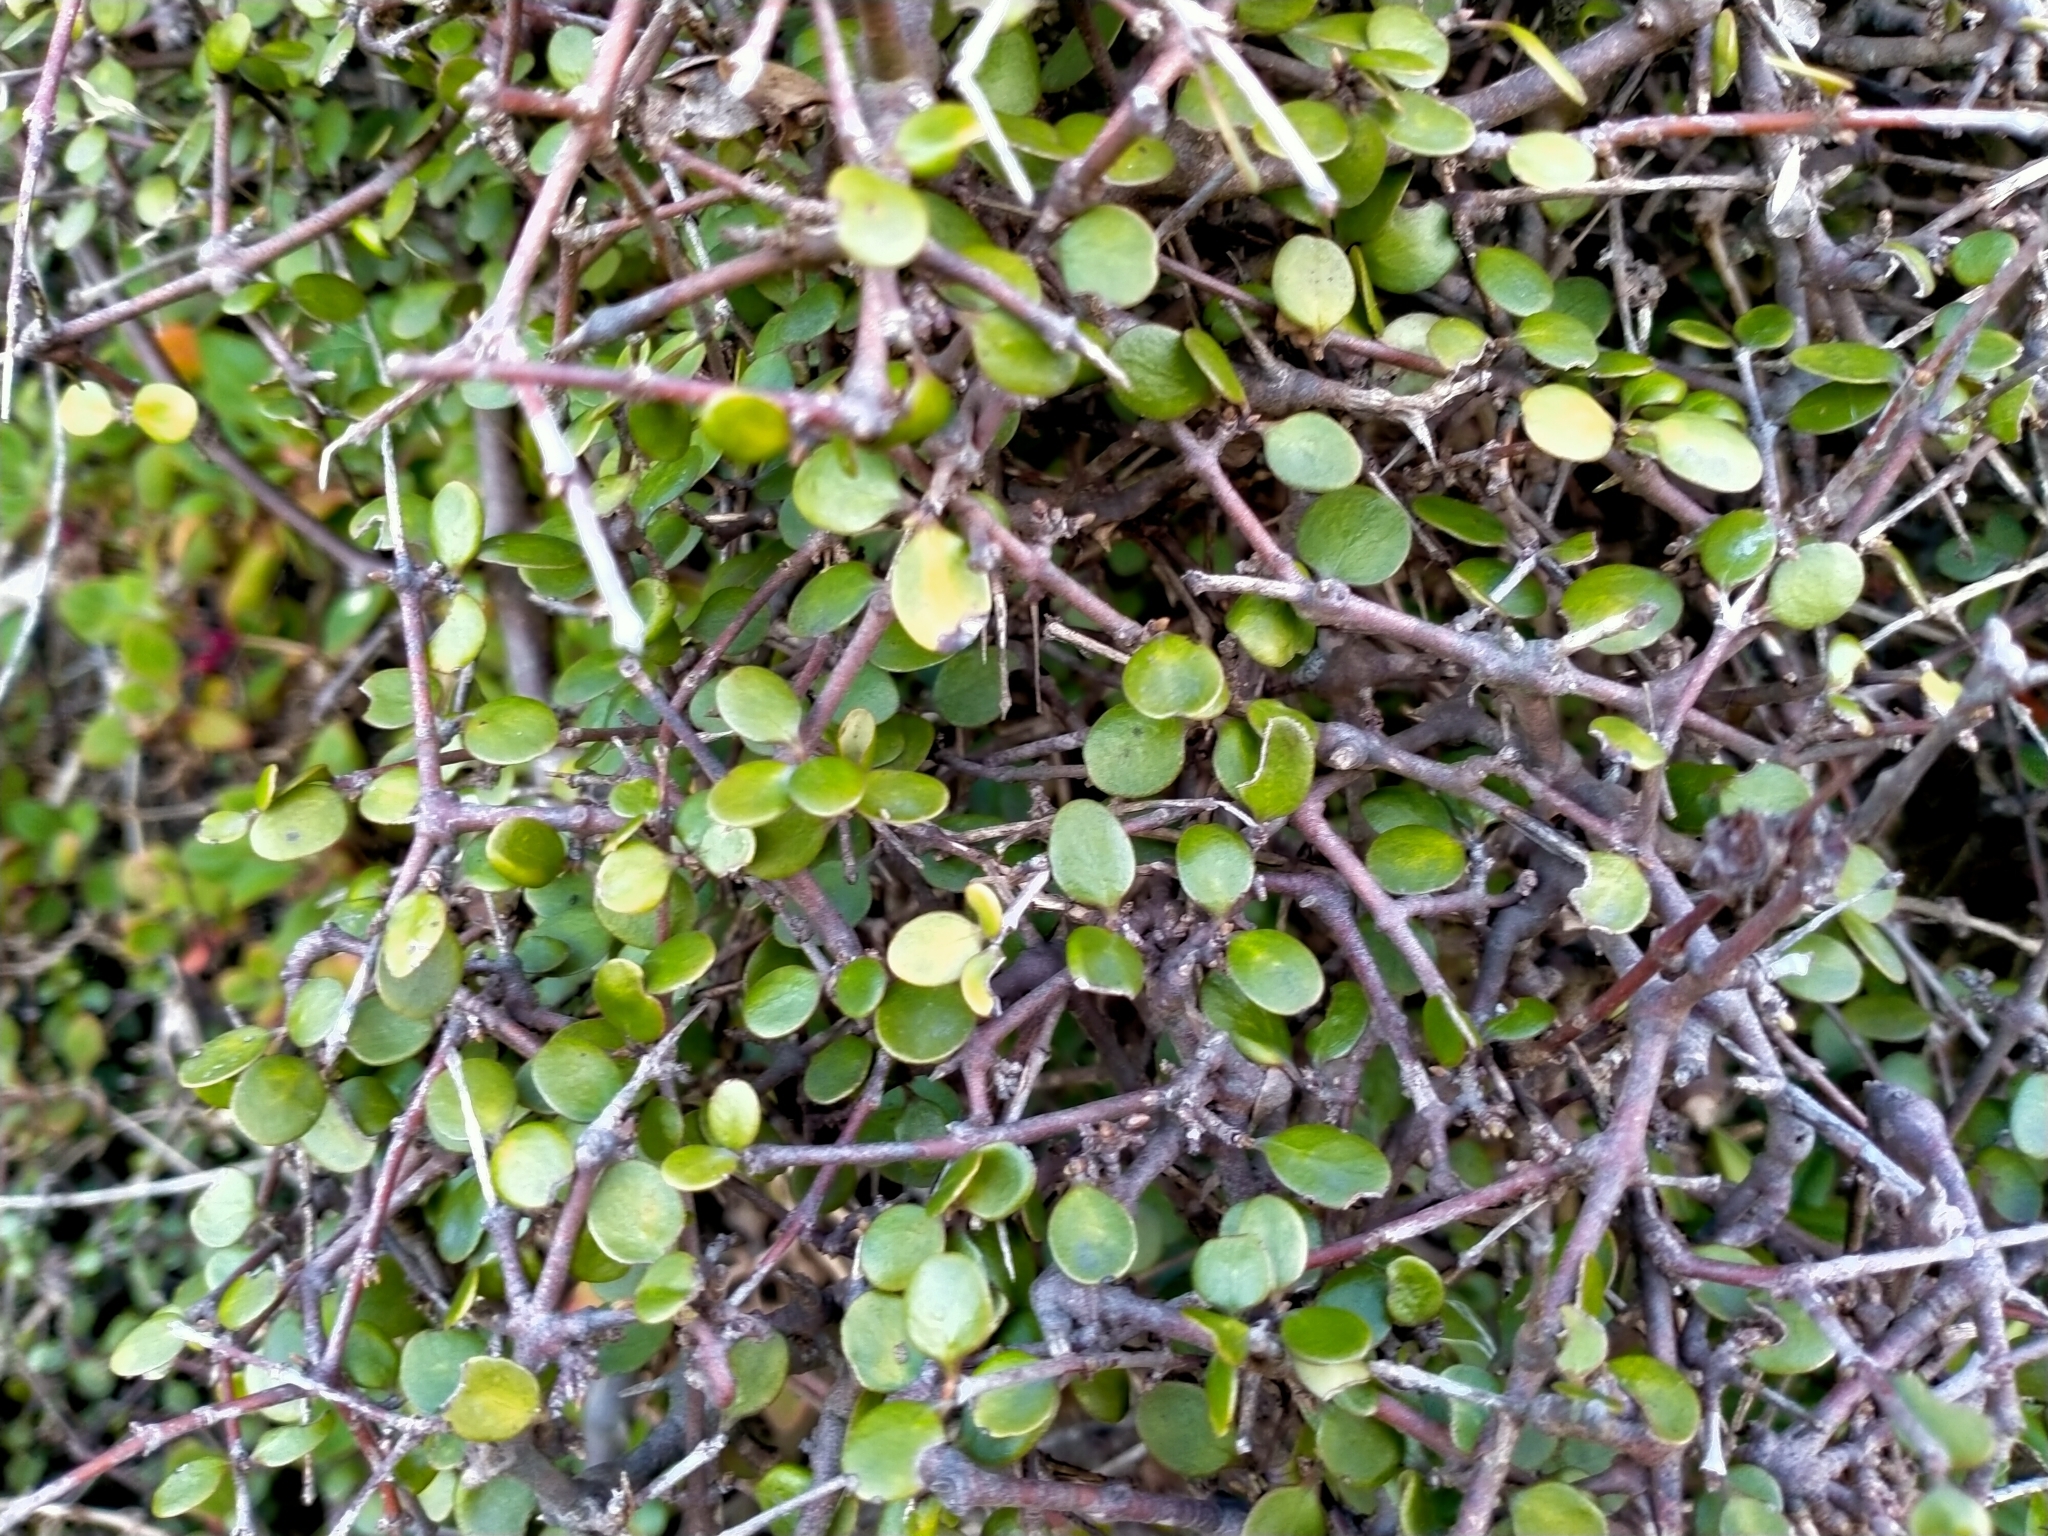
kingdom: Plantae
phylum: Tracheophyta
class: Magnoliopsida
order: Gentianales
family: Rubiaceae
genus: Coprosma
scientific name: Coprosma crassifolia
